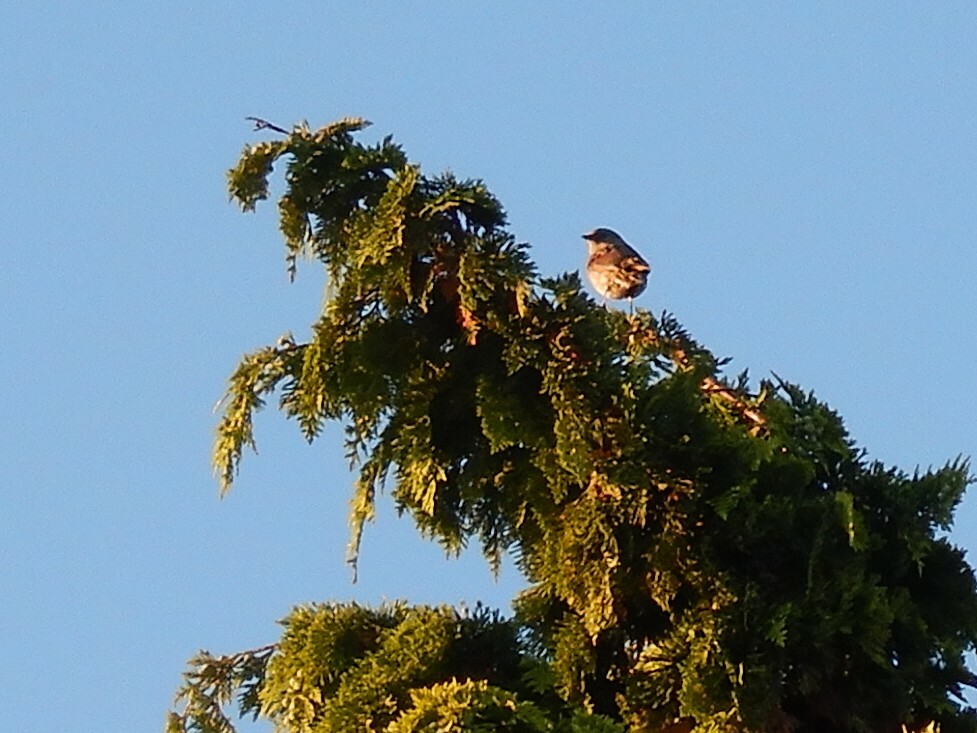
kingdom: Animalia
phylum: Chordata
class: Aves
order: Passeriformes
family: Prunellidae
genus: Prunella
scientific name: Prunella modularis
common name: Dunnock
